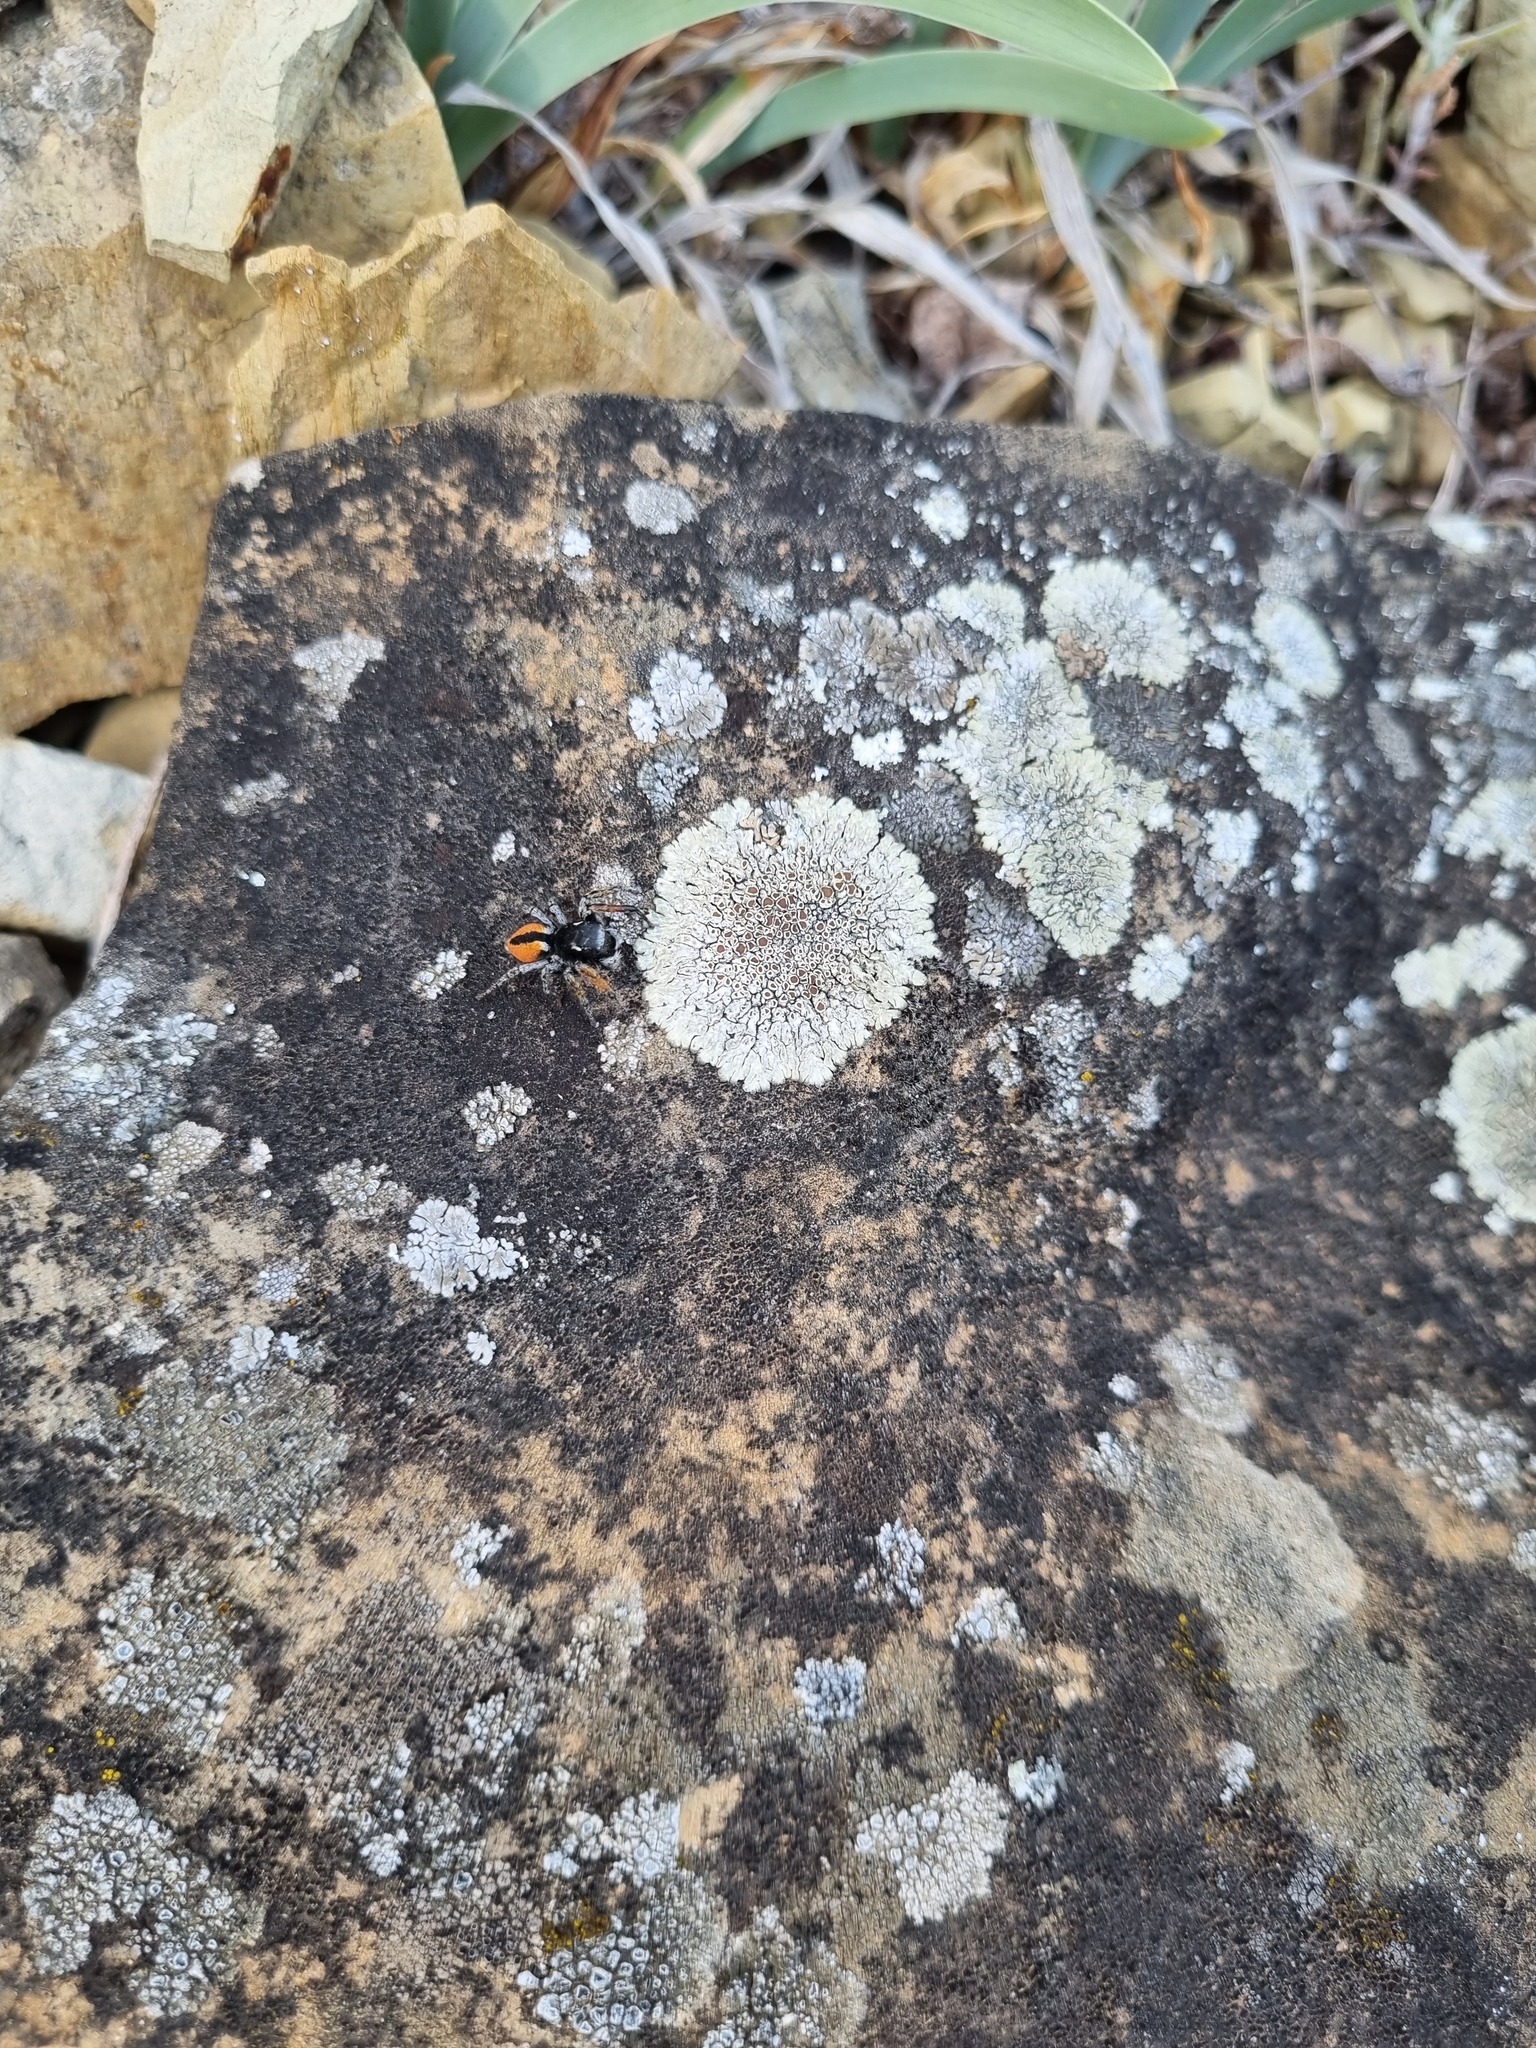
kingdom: Animalia
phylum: Arthropoda
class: Arachnida
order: Araneae
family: Salticidae
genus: Philaeus
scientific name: Philaeus chrysops
